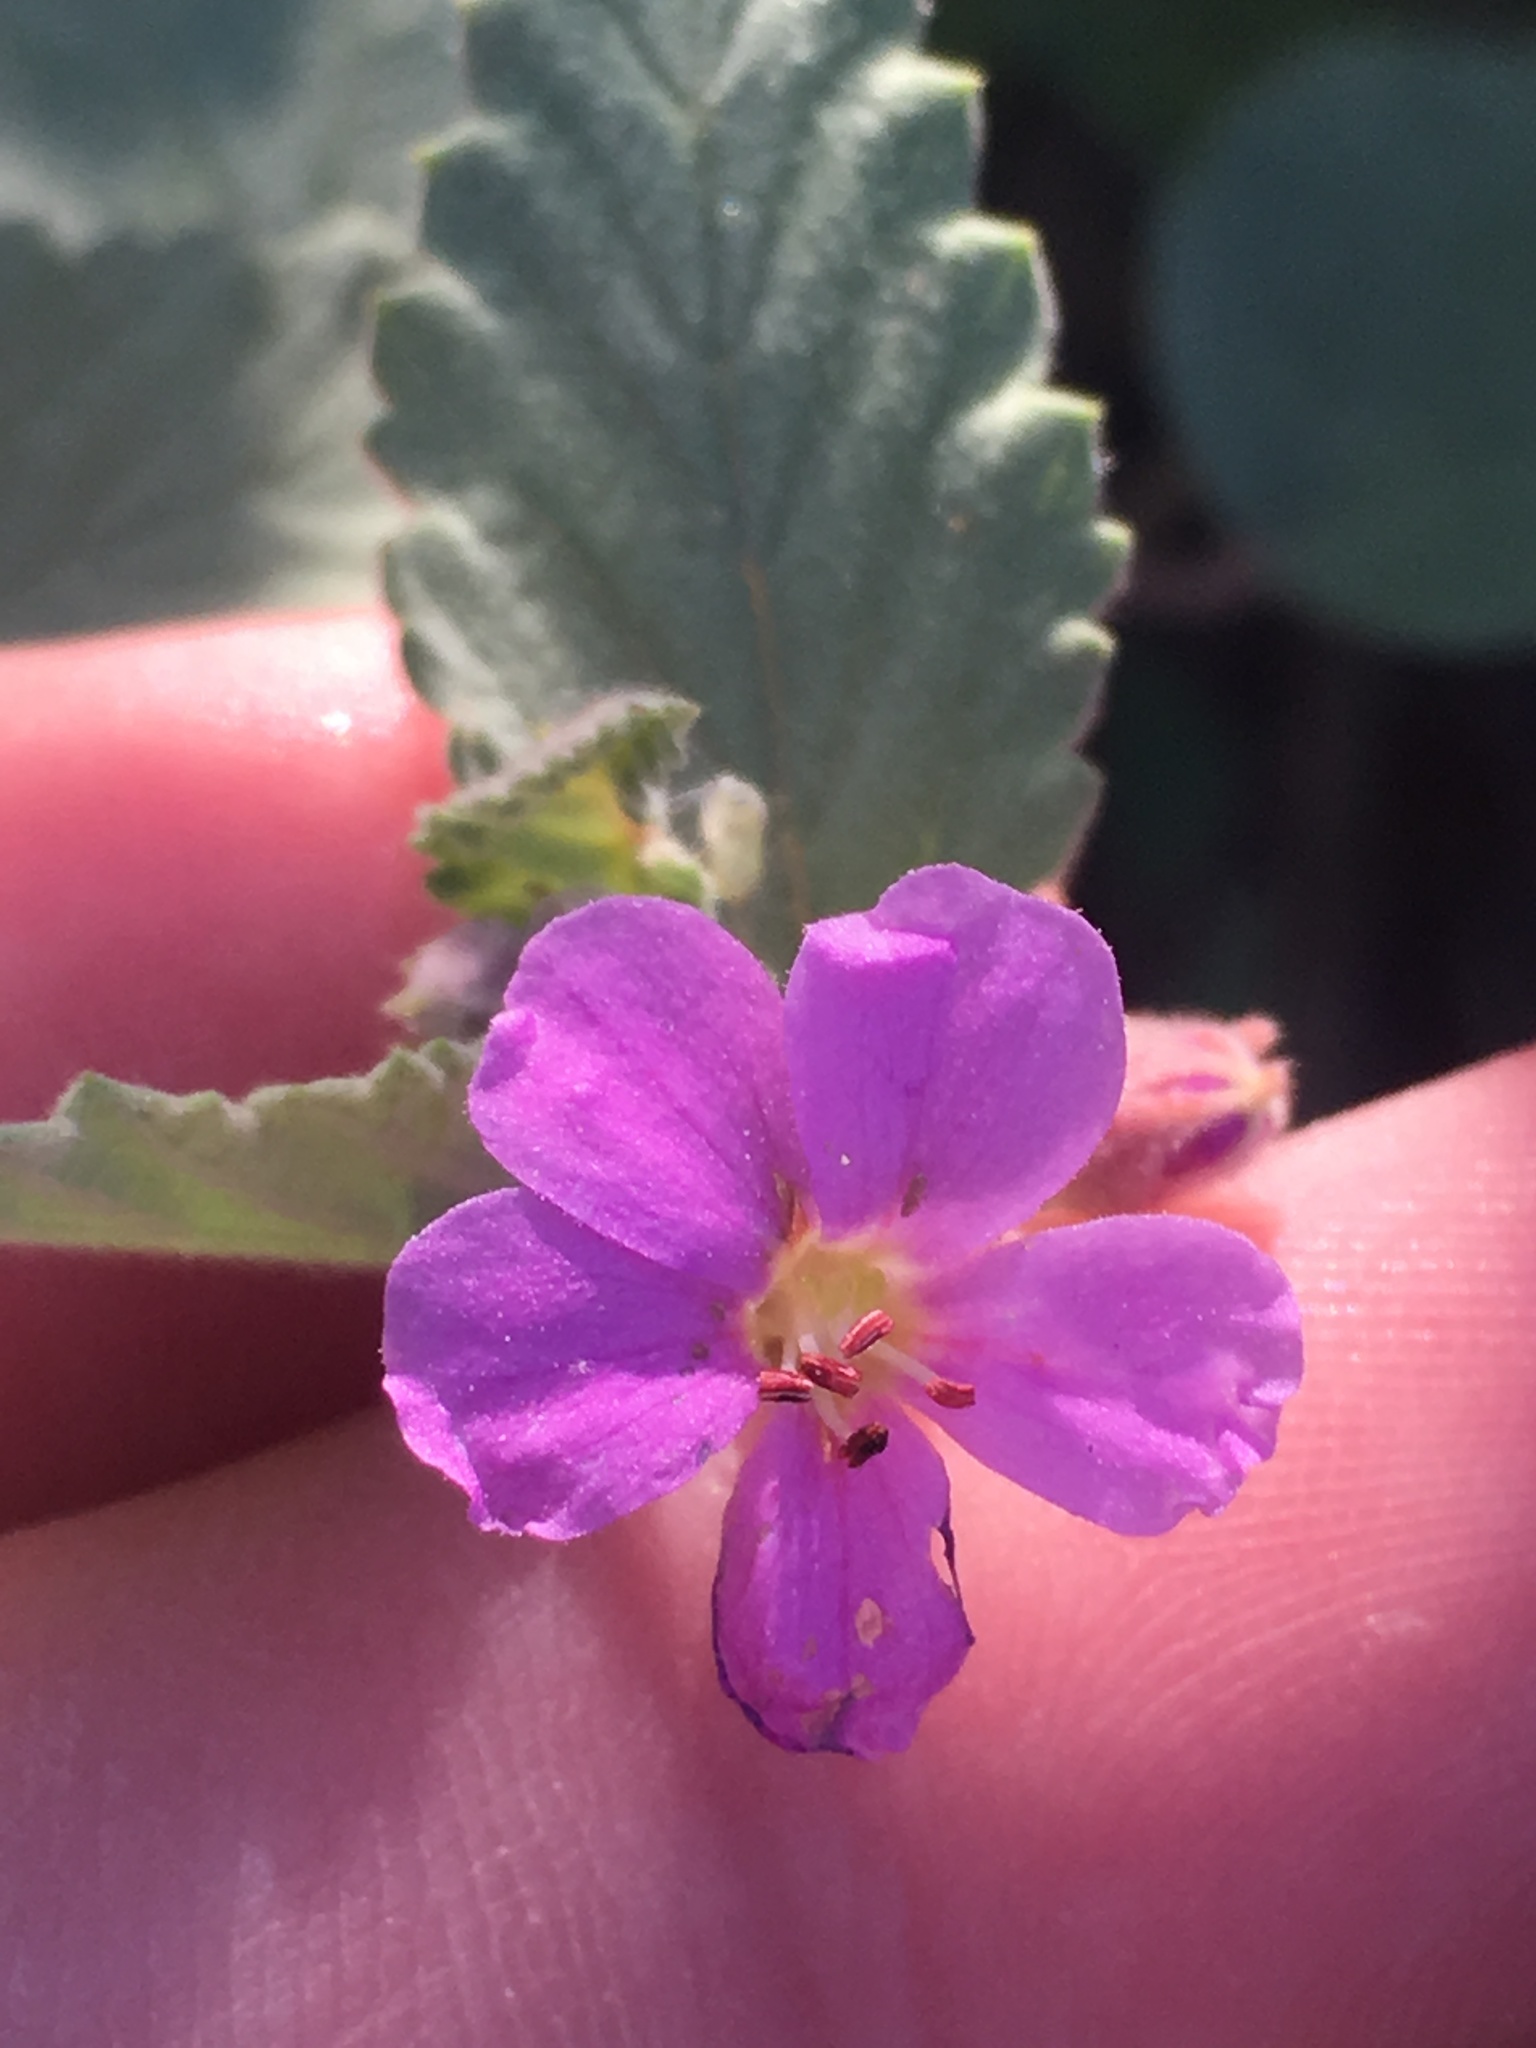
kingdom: Plantae
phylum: Tracheophyta
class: Magnoliopsida
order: Malvales
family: Malvaceae
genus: Melochia
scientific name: Melochia tomentosa
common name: Black torch
